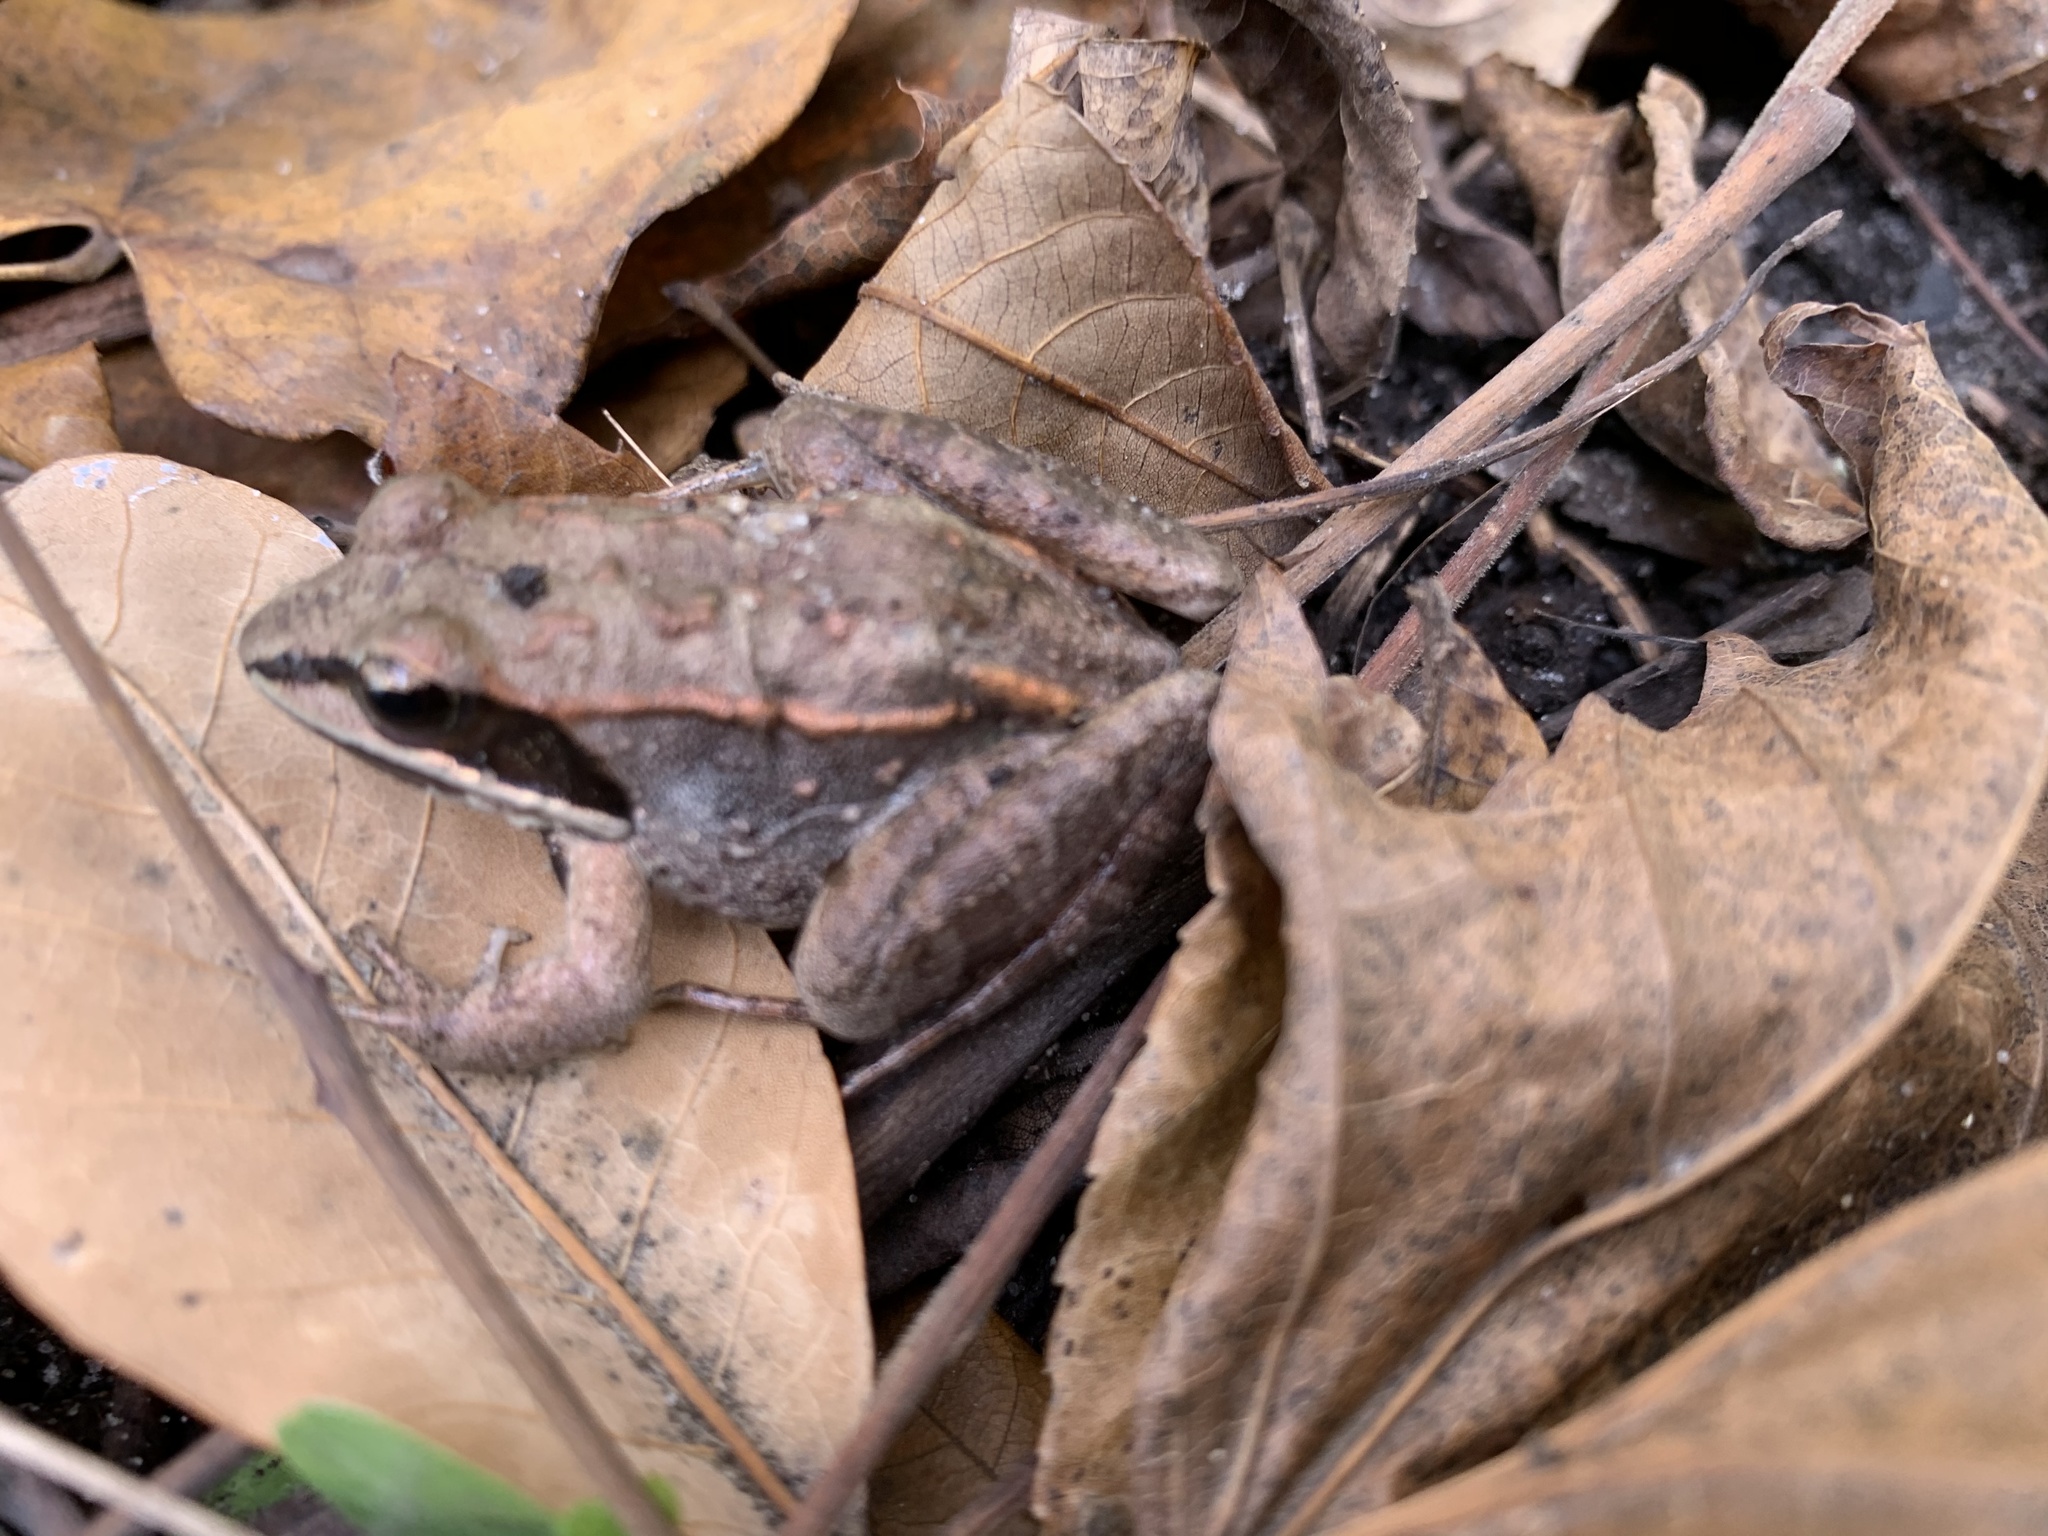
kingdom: Animalia
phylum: Chordata
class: Amphibia
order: Anura
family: Ranidae
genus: Lithobates
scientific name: Lithobates sylvaticus
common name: Wood frog
